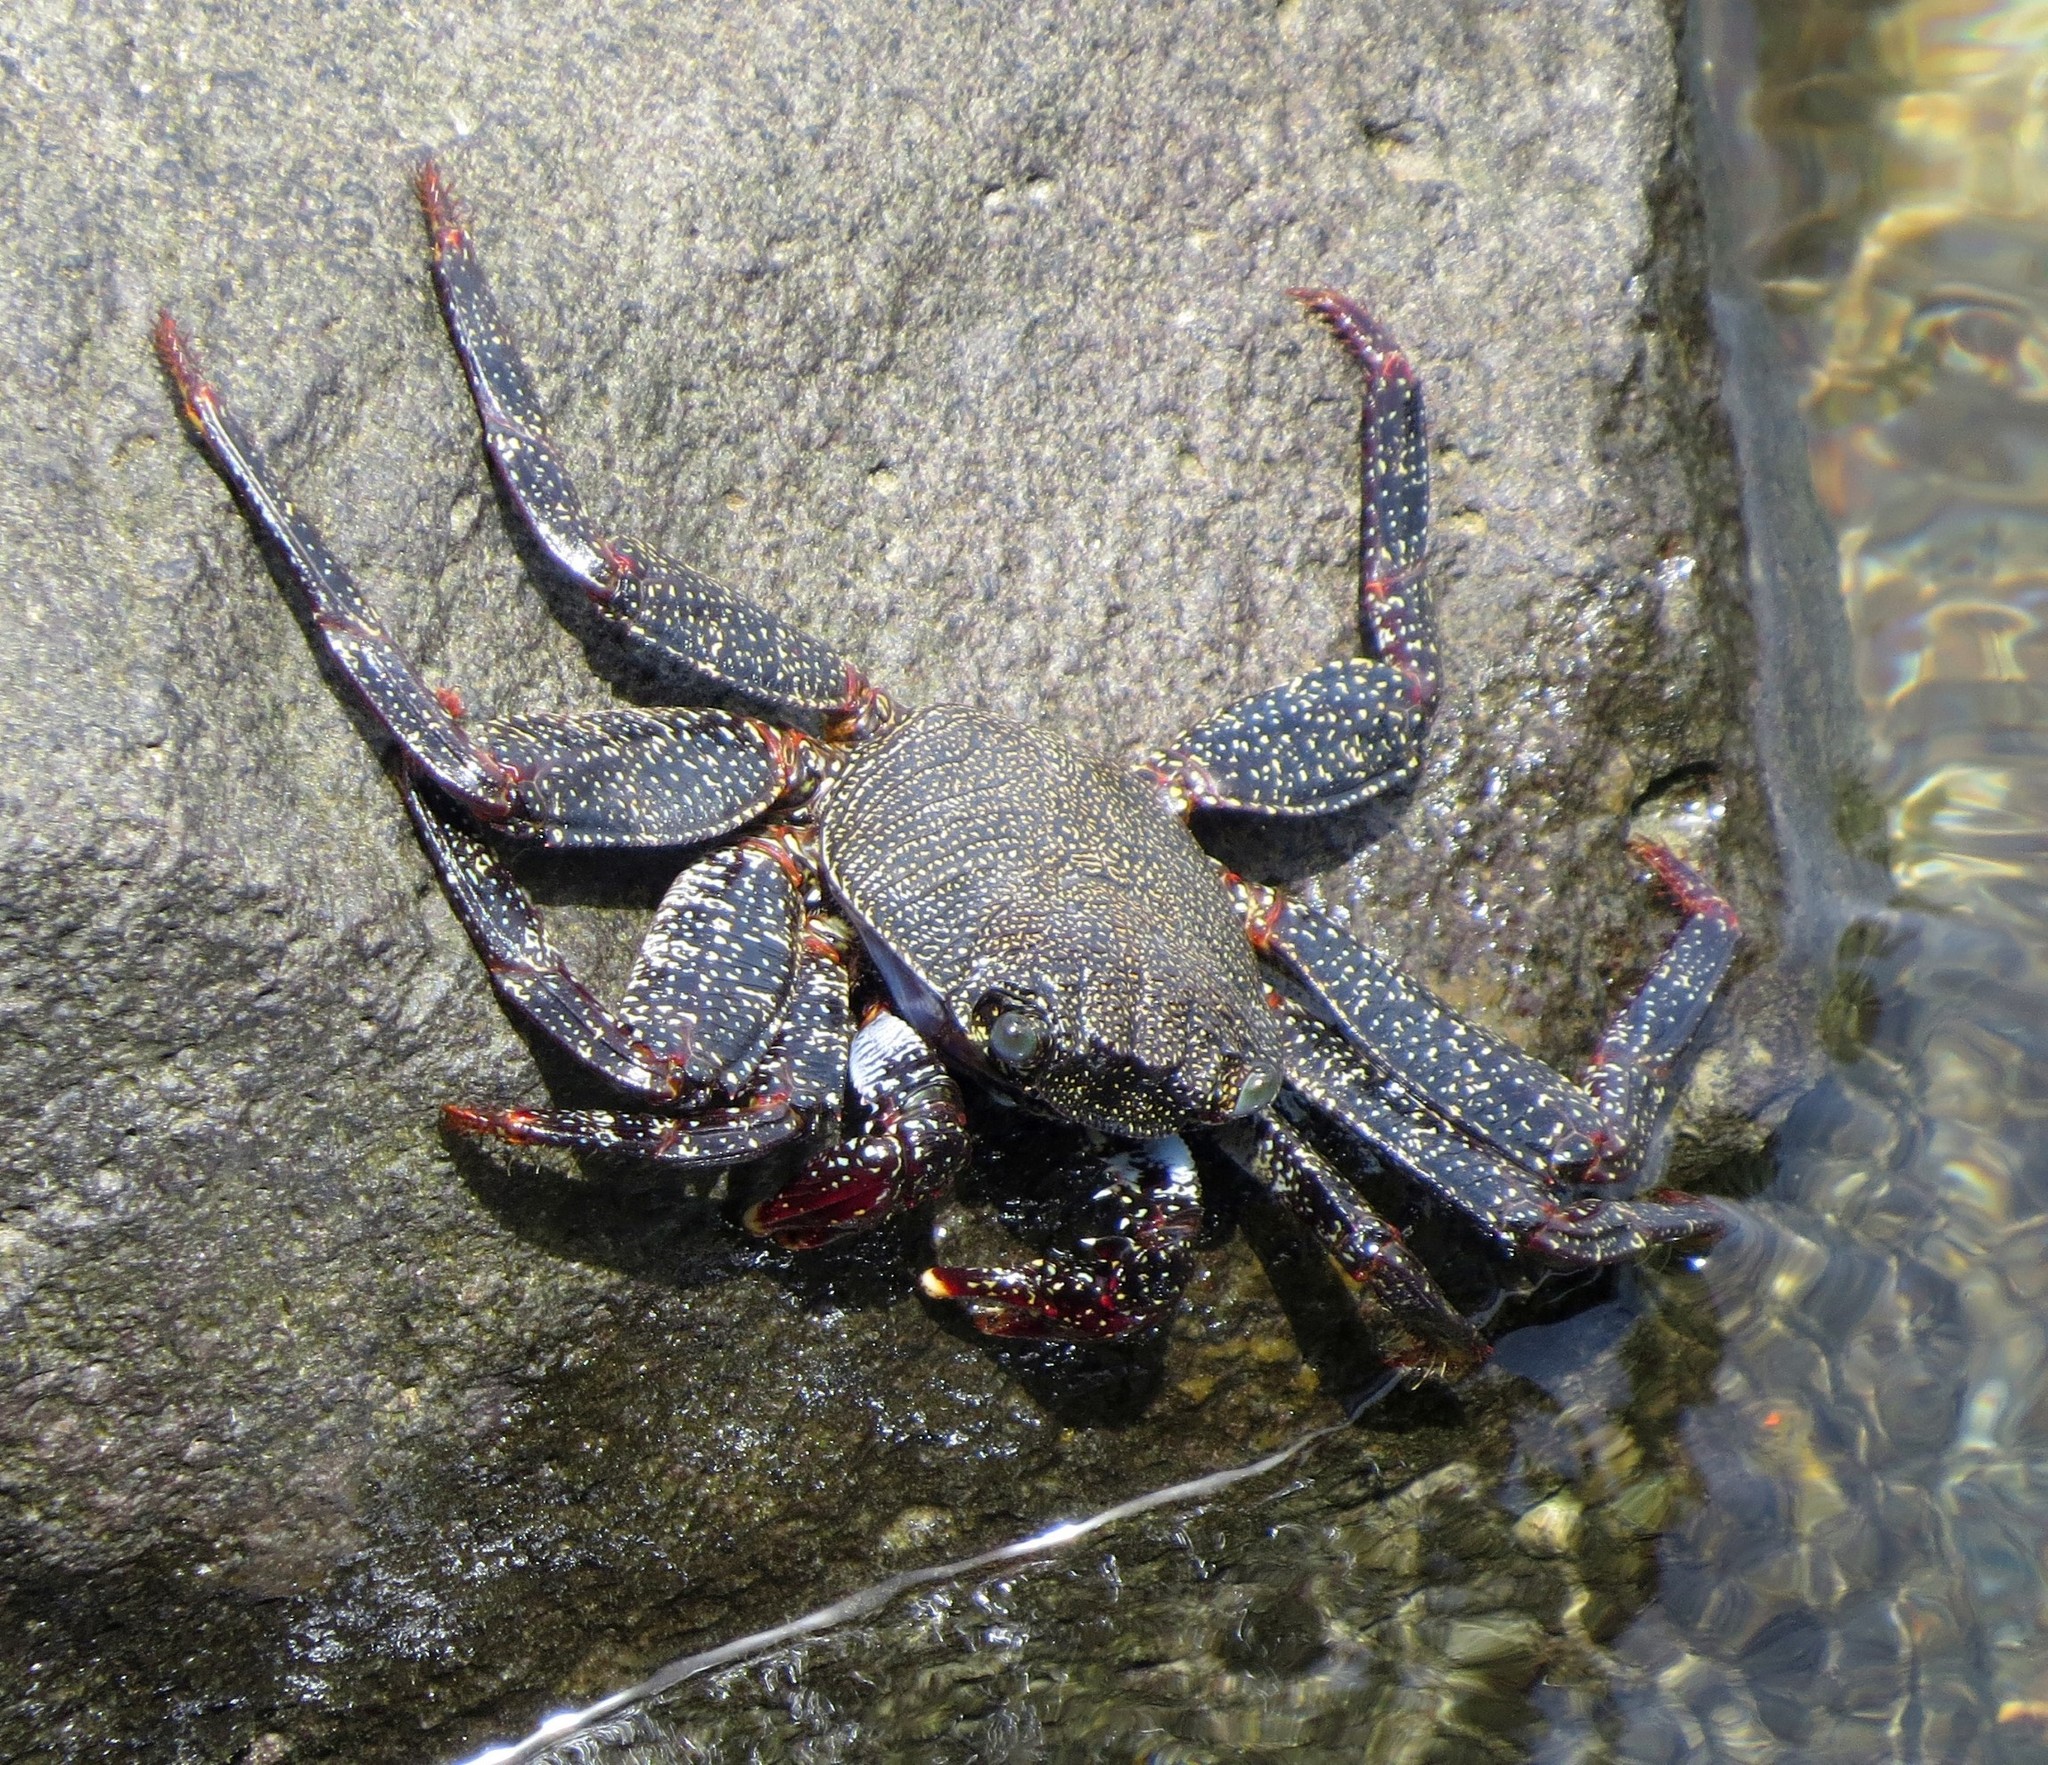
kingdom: Animalia
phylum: Arthropoda
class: Malacostraca
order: Decapoda
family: Grapsidae
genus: Grapsus
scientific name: Grapsus adscensionis
